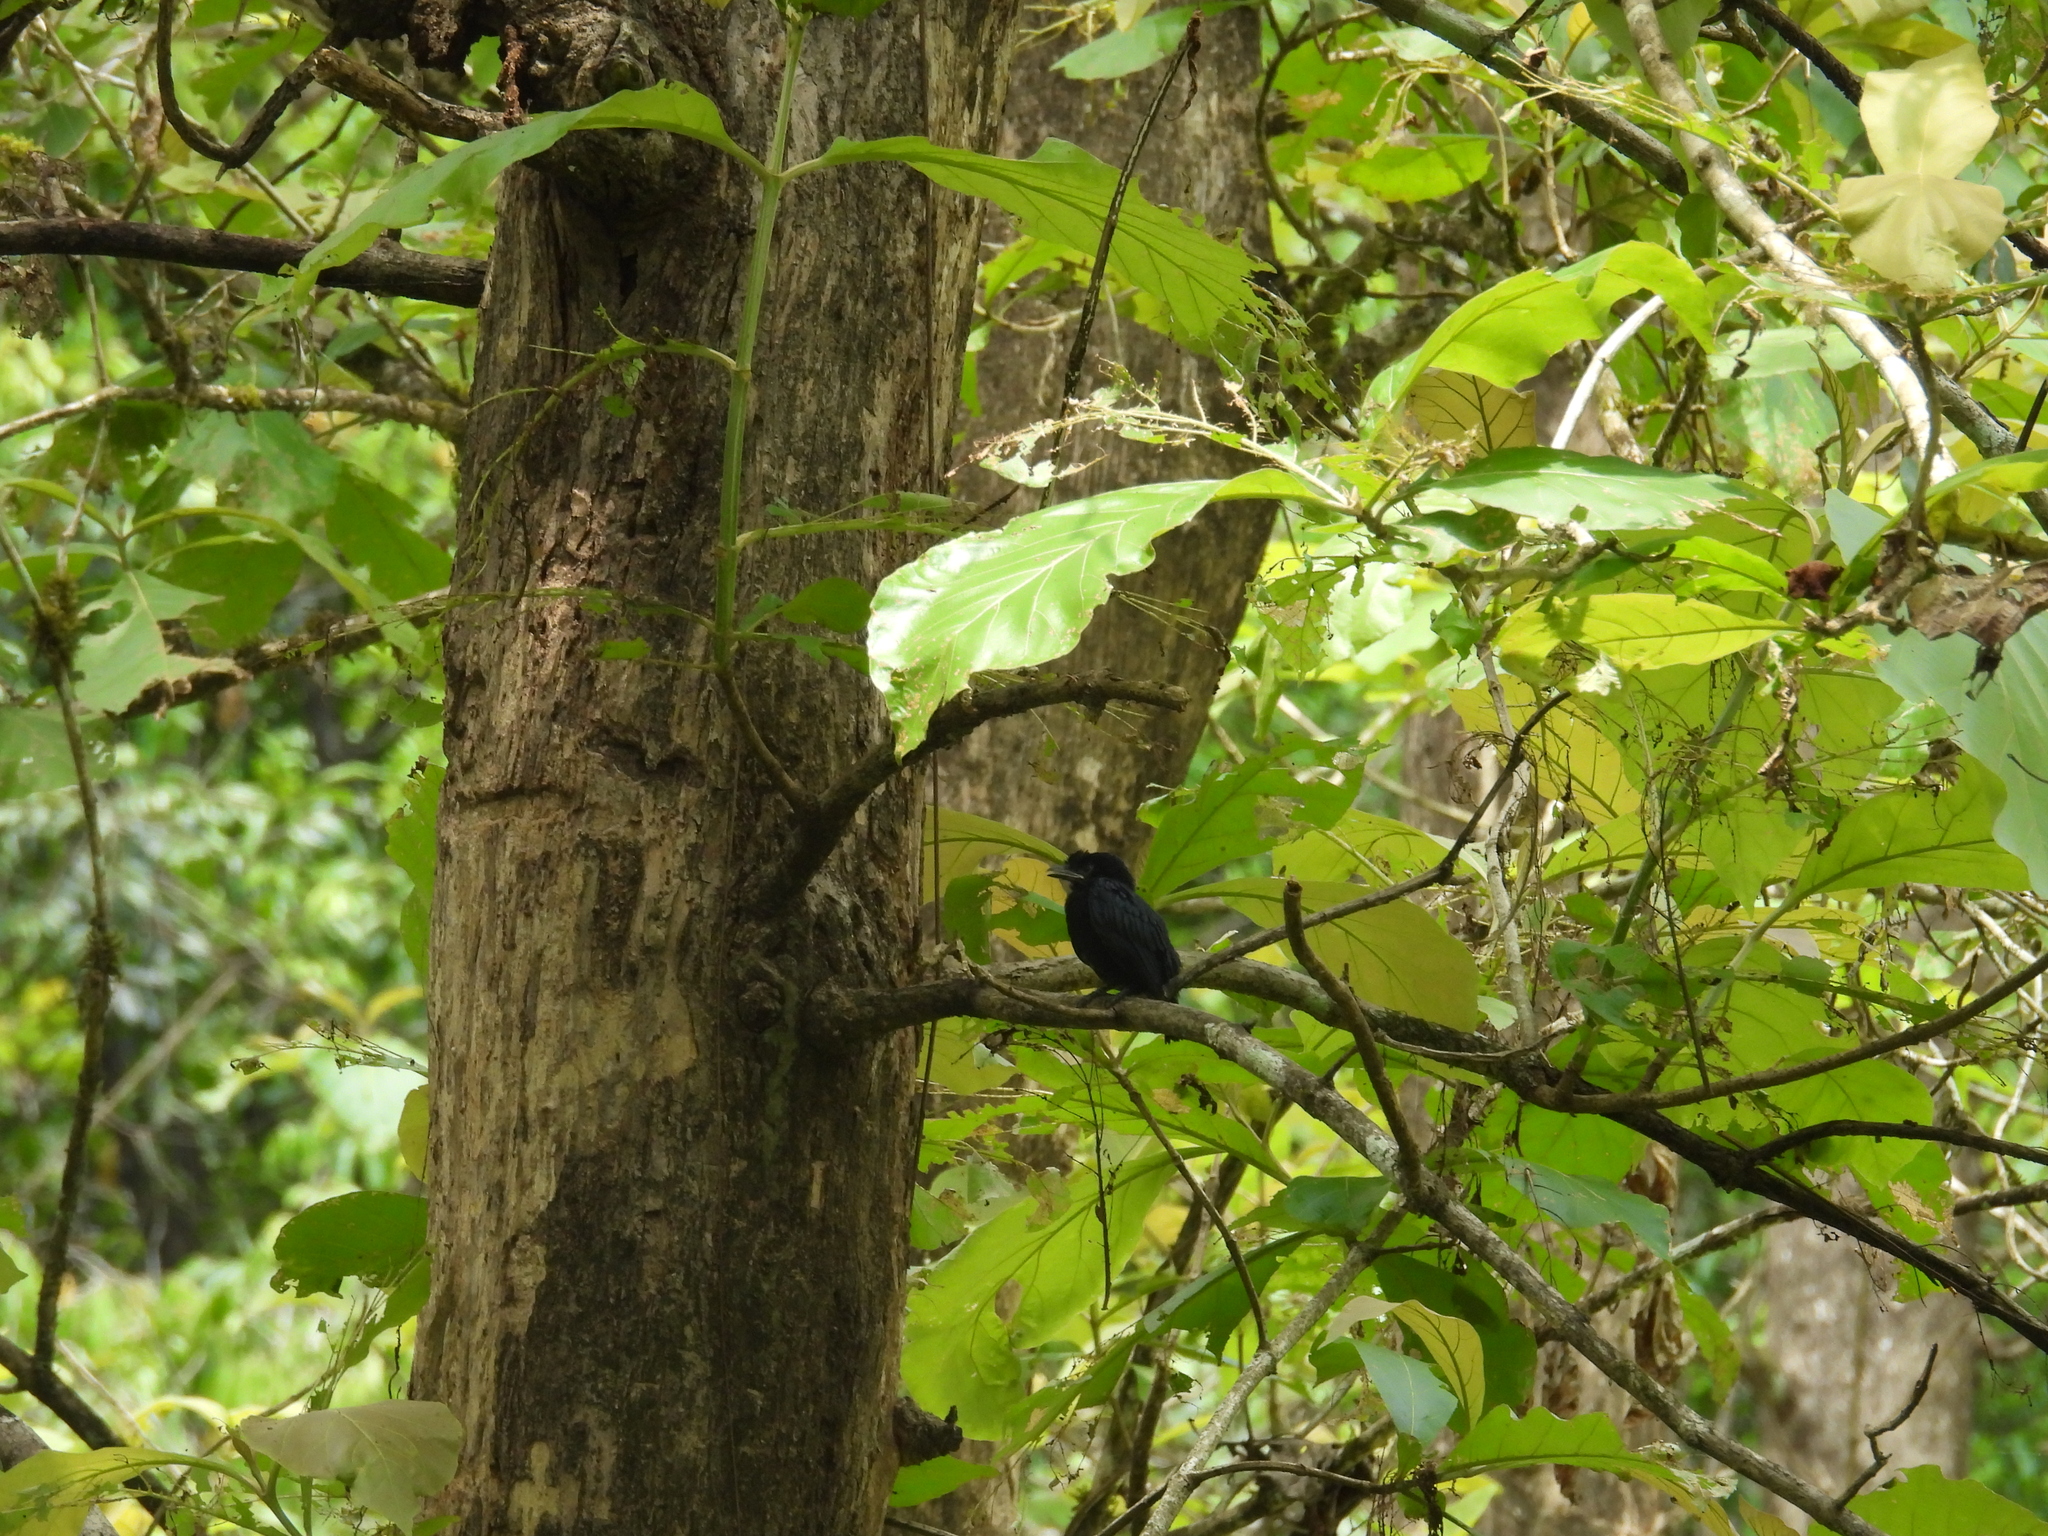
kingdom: Animalia
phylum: Chordata
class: Aves
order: Passeriformes
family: Dicruridae
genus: Dicrurus
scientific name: Dicrurus macrocercus
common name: Black drongo
